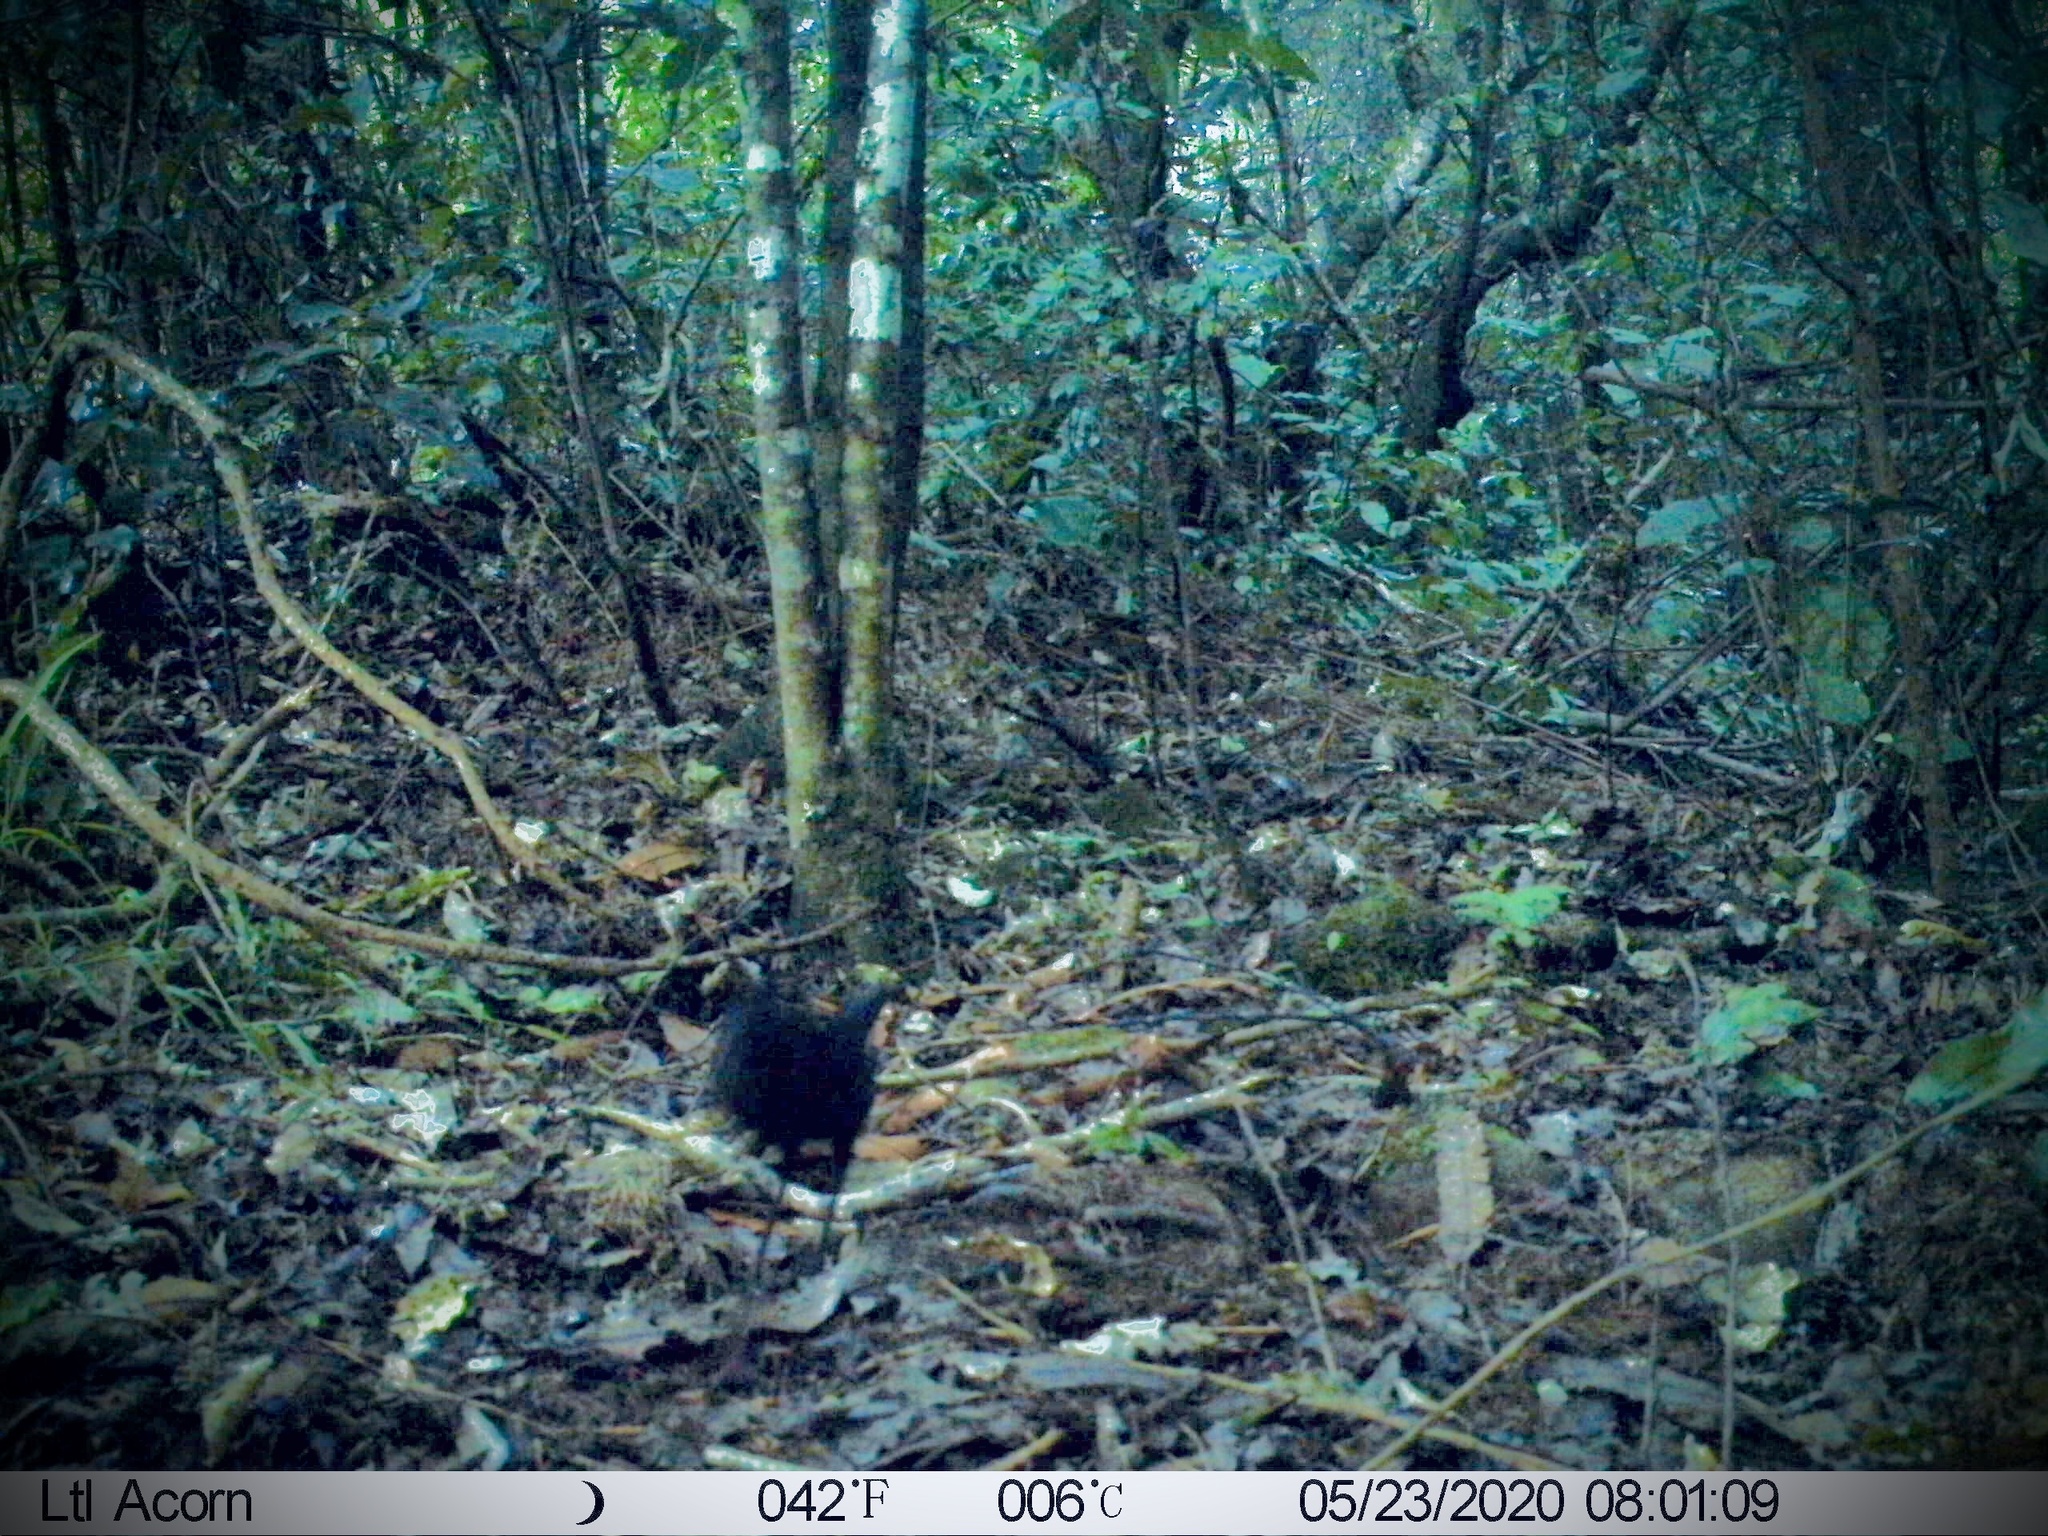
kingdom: Animalia
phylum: Chordata
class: Aves
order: Passeriformes
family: Turdidae
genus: Turdus
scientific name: Turdus merula
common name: Common blackbird
